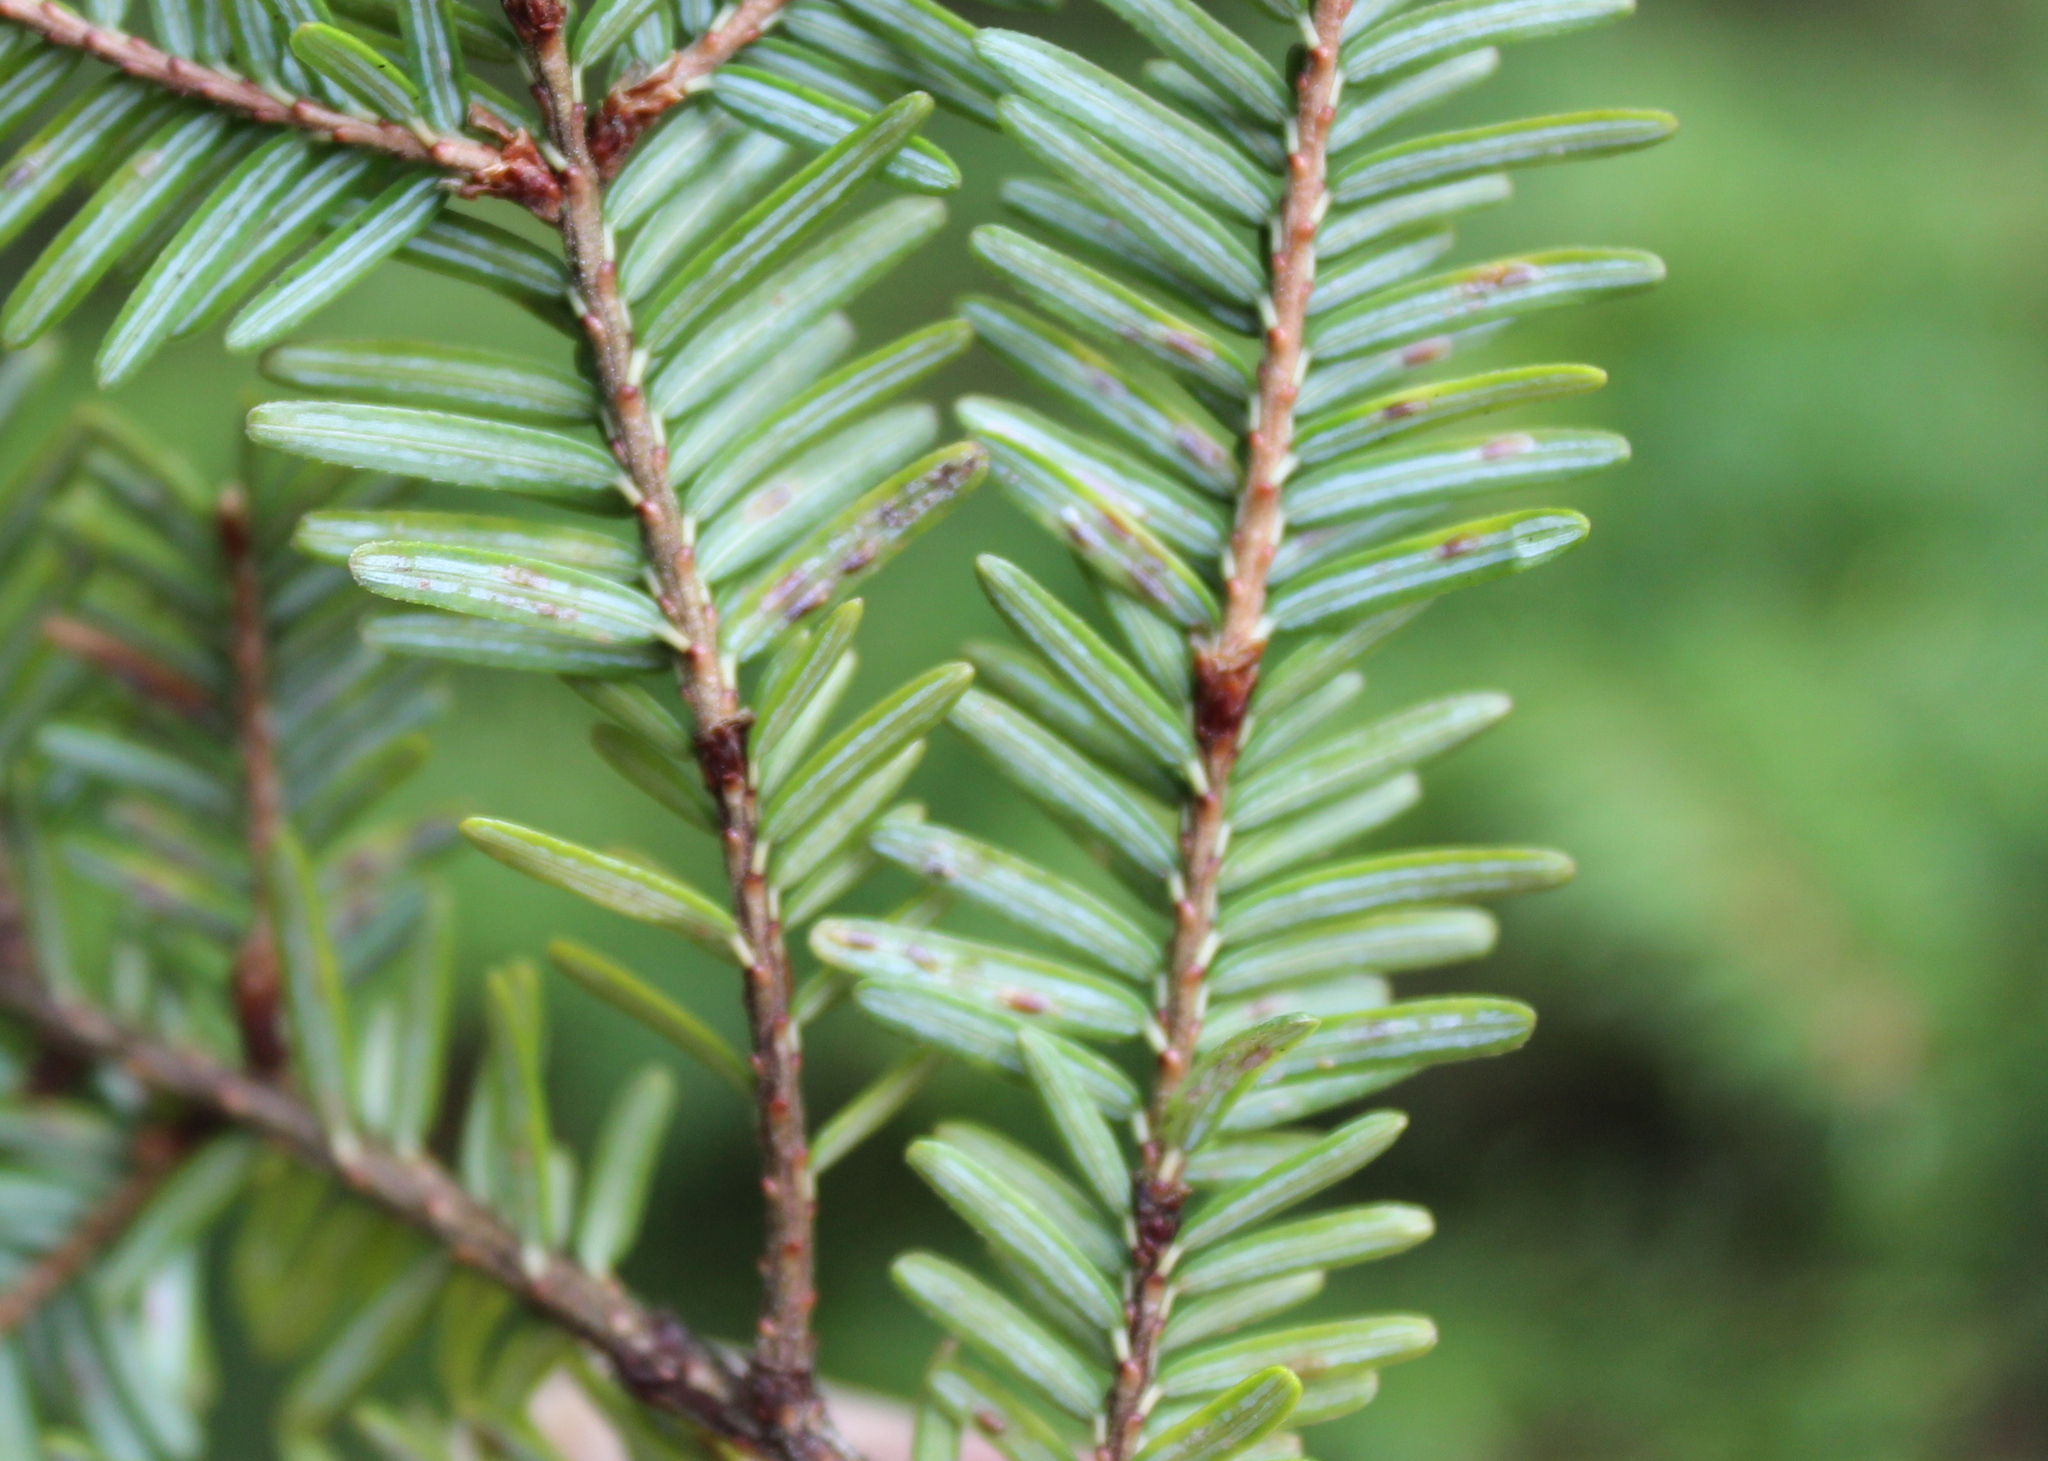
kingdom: Animalia
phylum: Arthropoda
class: Insecta
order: Hemiptera
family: Diaspididae
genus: Fiorinia
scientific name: Fiorinia externa
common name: Elongate hemlock scale
